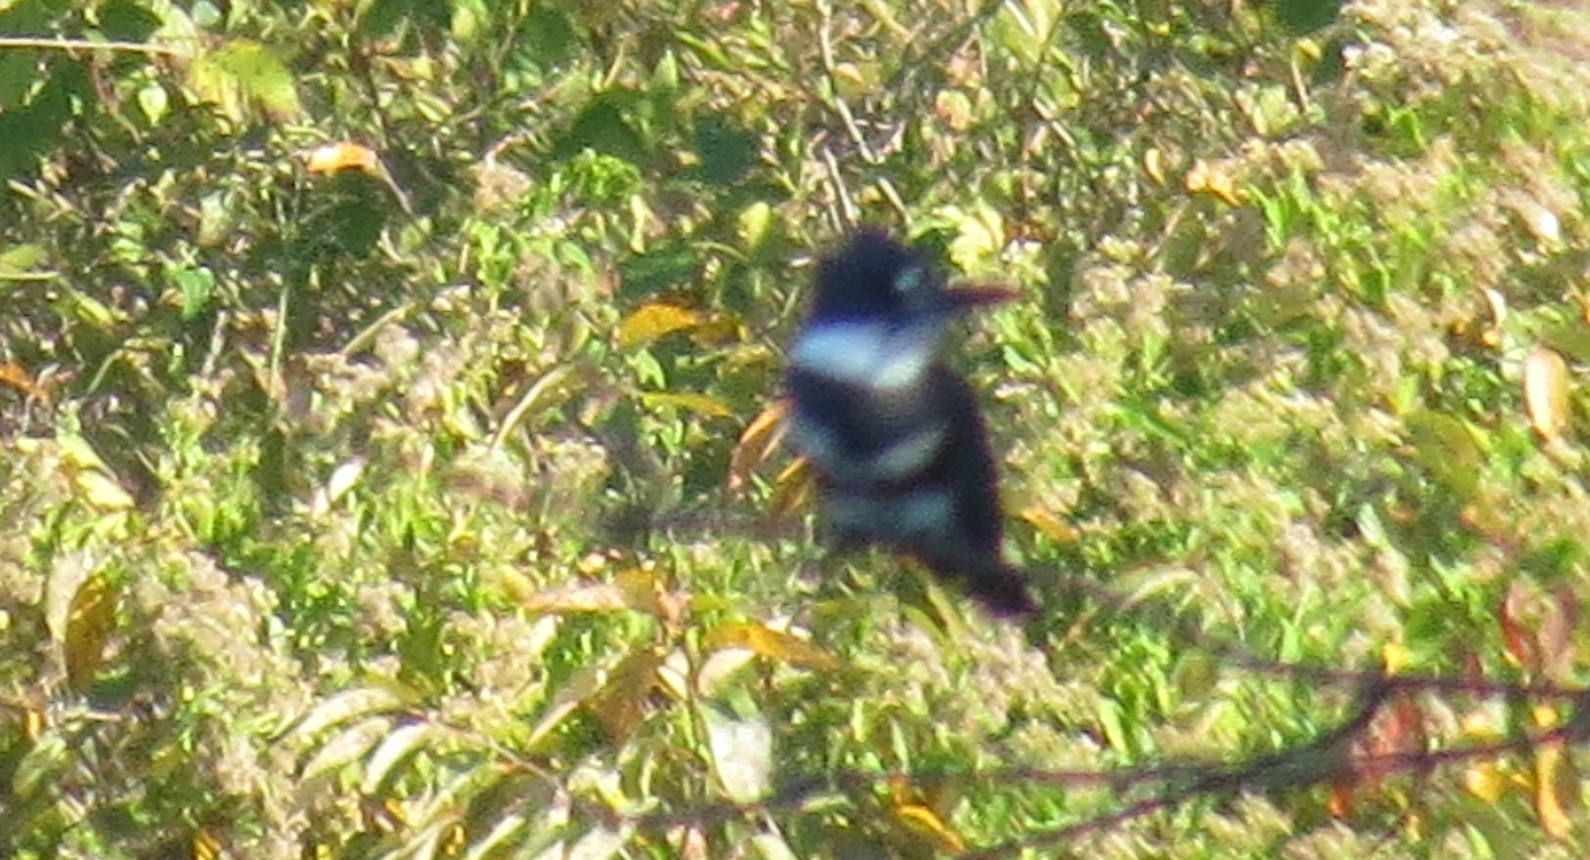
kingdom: Animalia
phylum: Chordata
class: Aves
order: Coraciiformes
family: Alcedinidae
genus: Megaceryle
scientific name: Megaceryle alcyon
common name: Belted kingfisher
